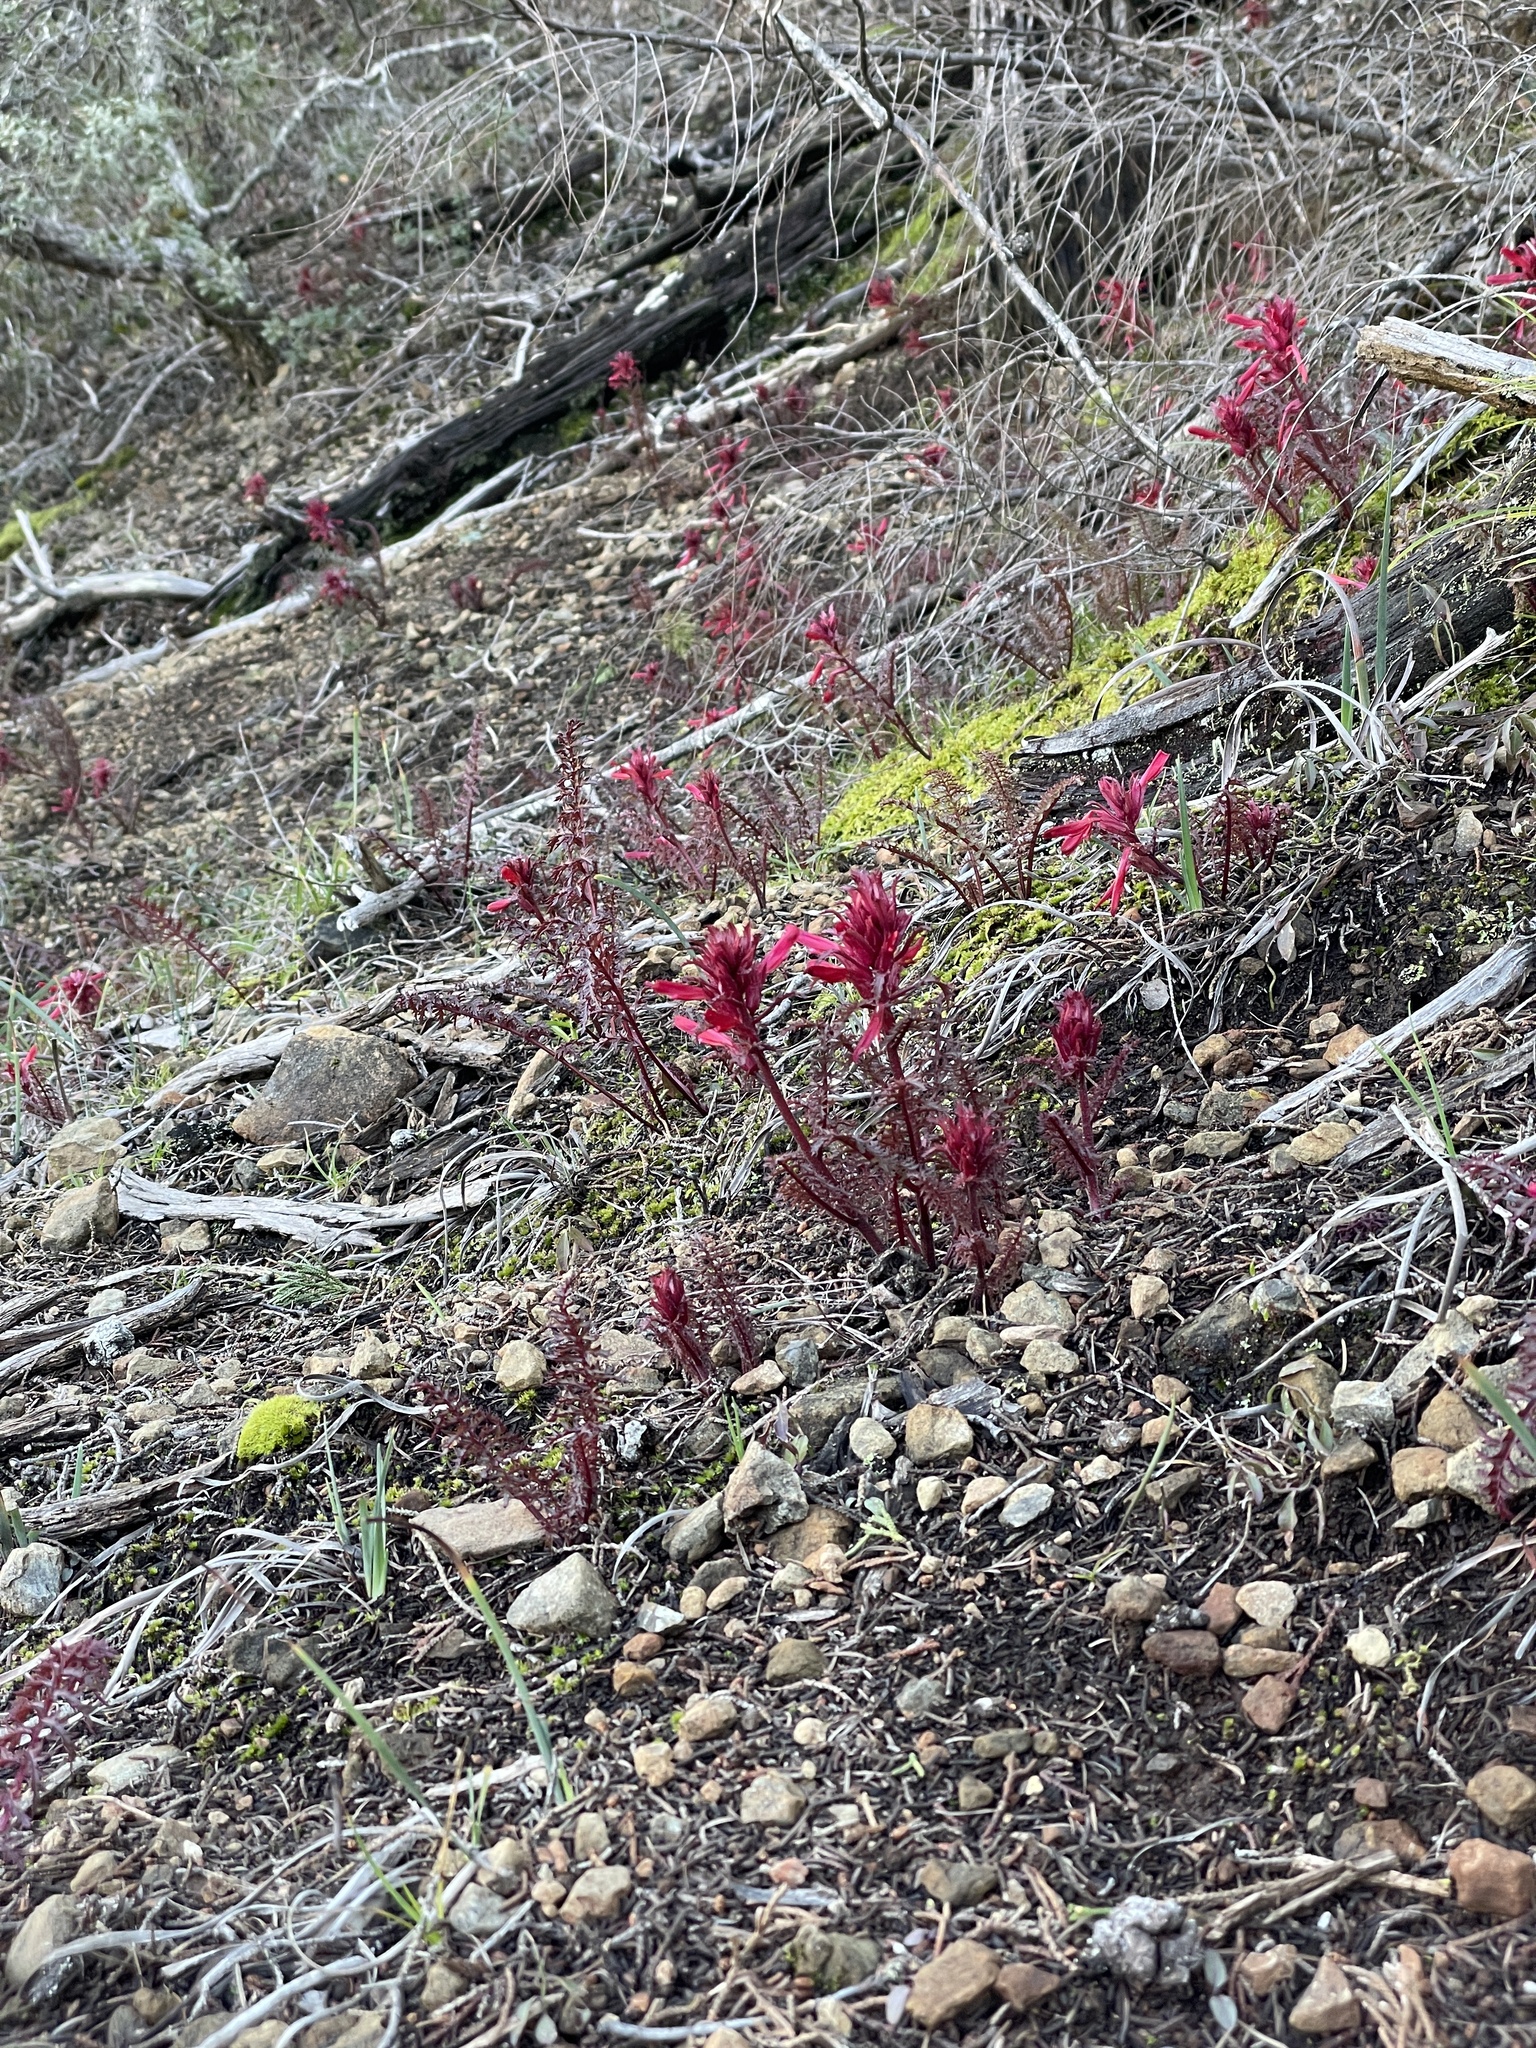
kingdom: Plantae
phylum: Tracheophyta
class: Magnoliopsida
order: Lamiales
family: Orobanchaceae
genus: Pedicularis
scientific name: Pedicularis densiflora
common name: Indian warrior
